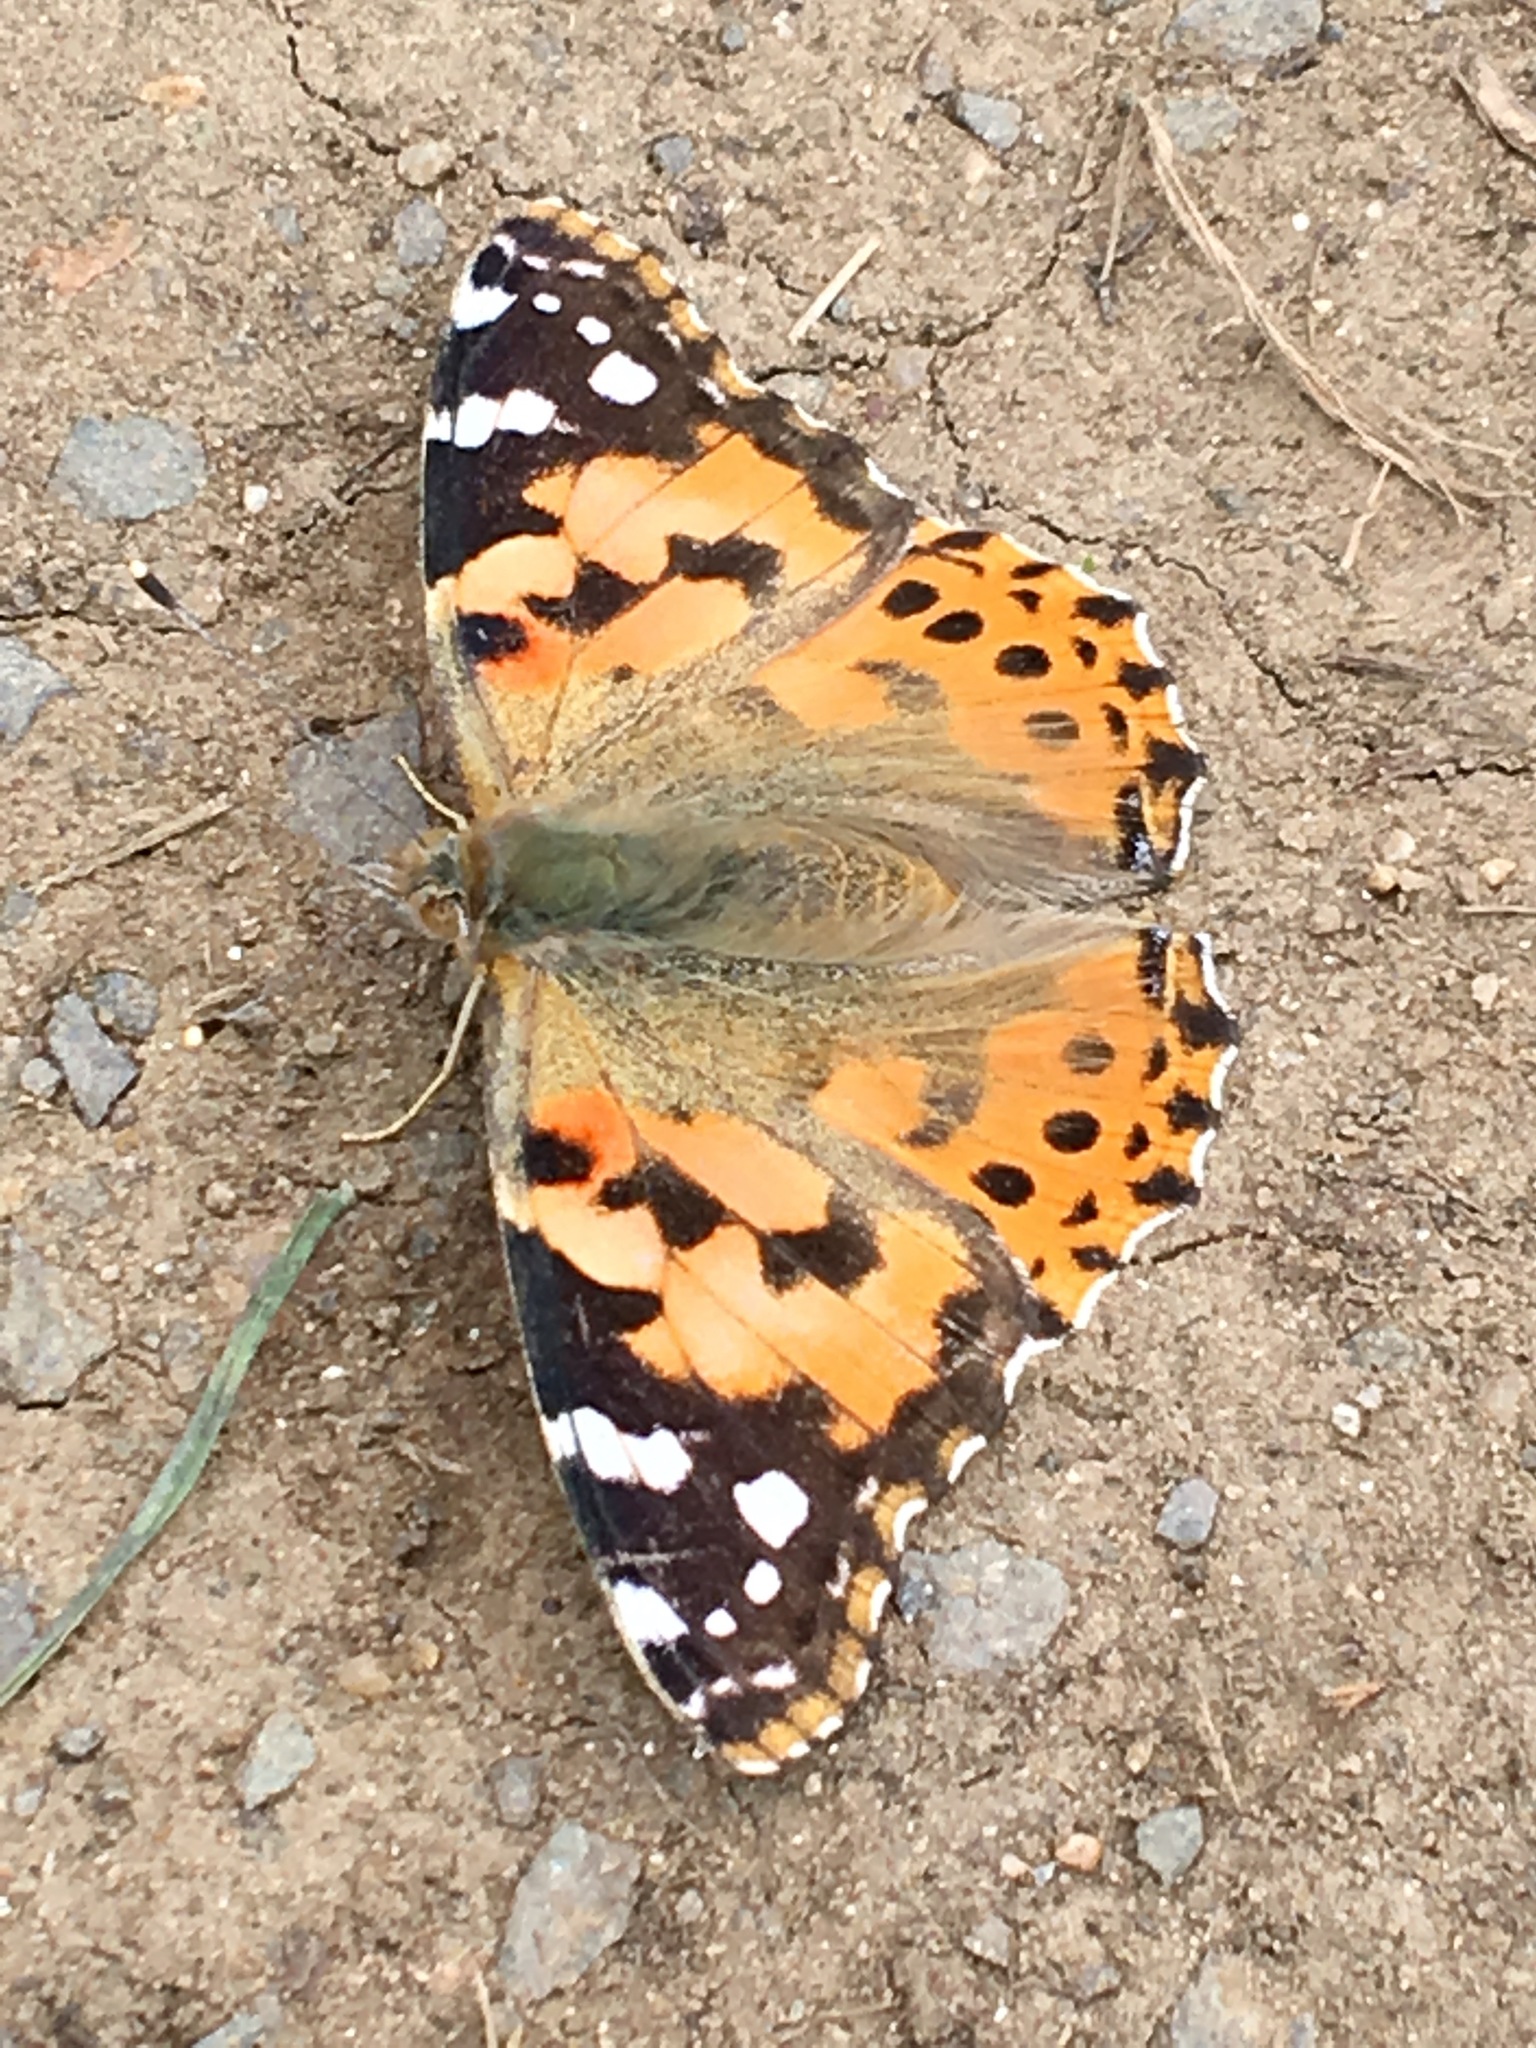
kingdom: Animalia
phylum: Arthropoda
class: Insecta
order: Lepidoptera
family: Nymphalidae
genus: Vanessa
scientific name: Vanessa cardui
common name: Painted lady
